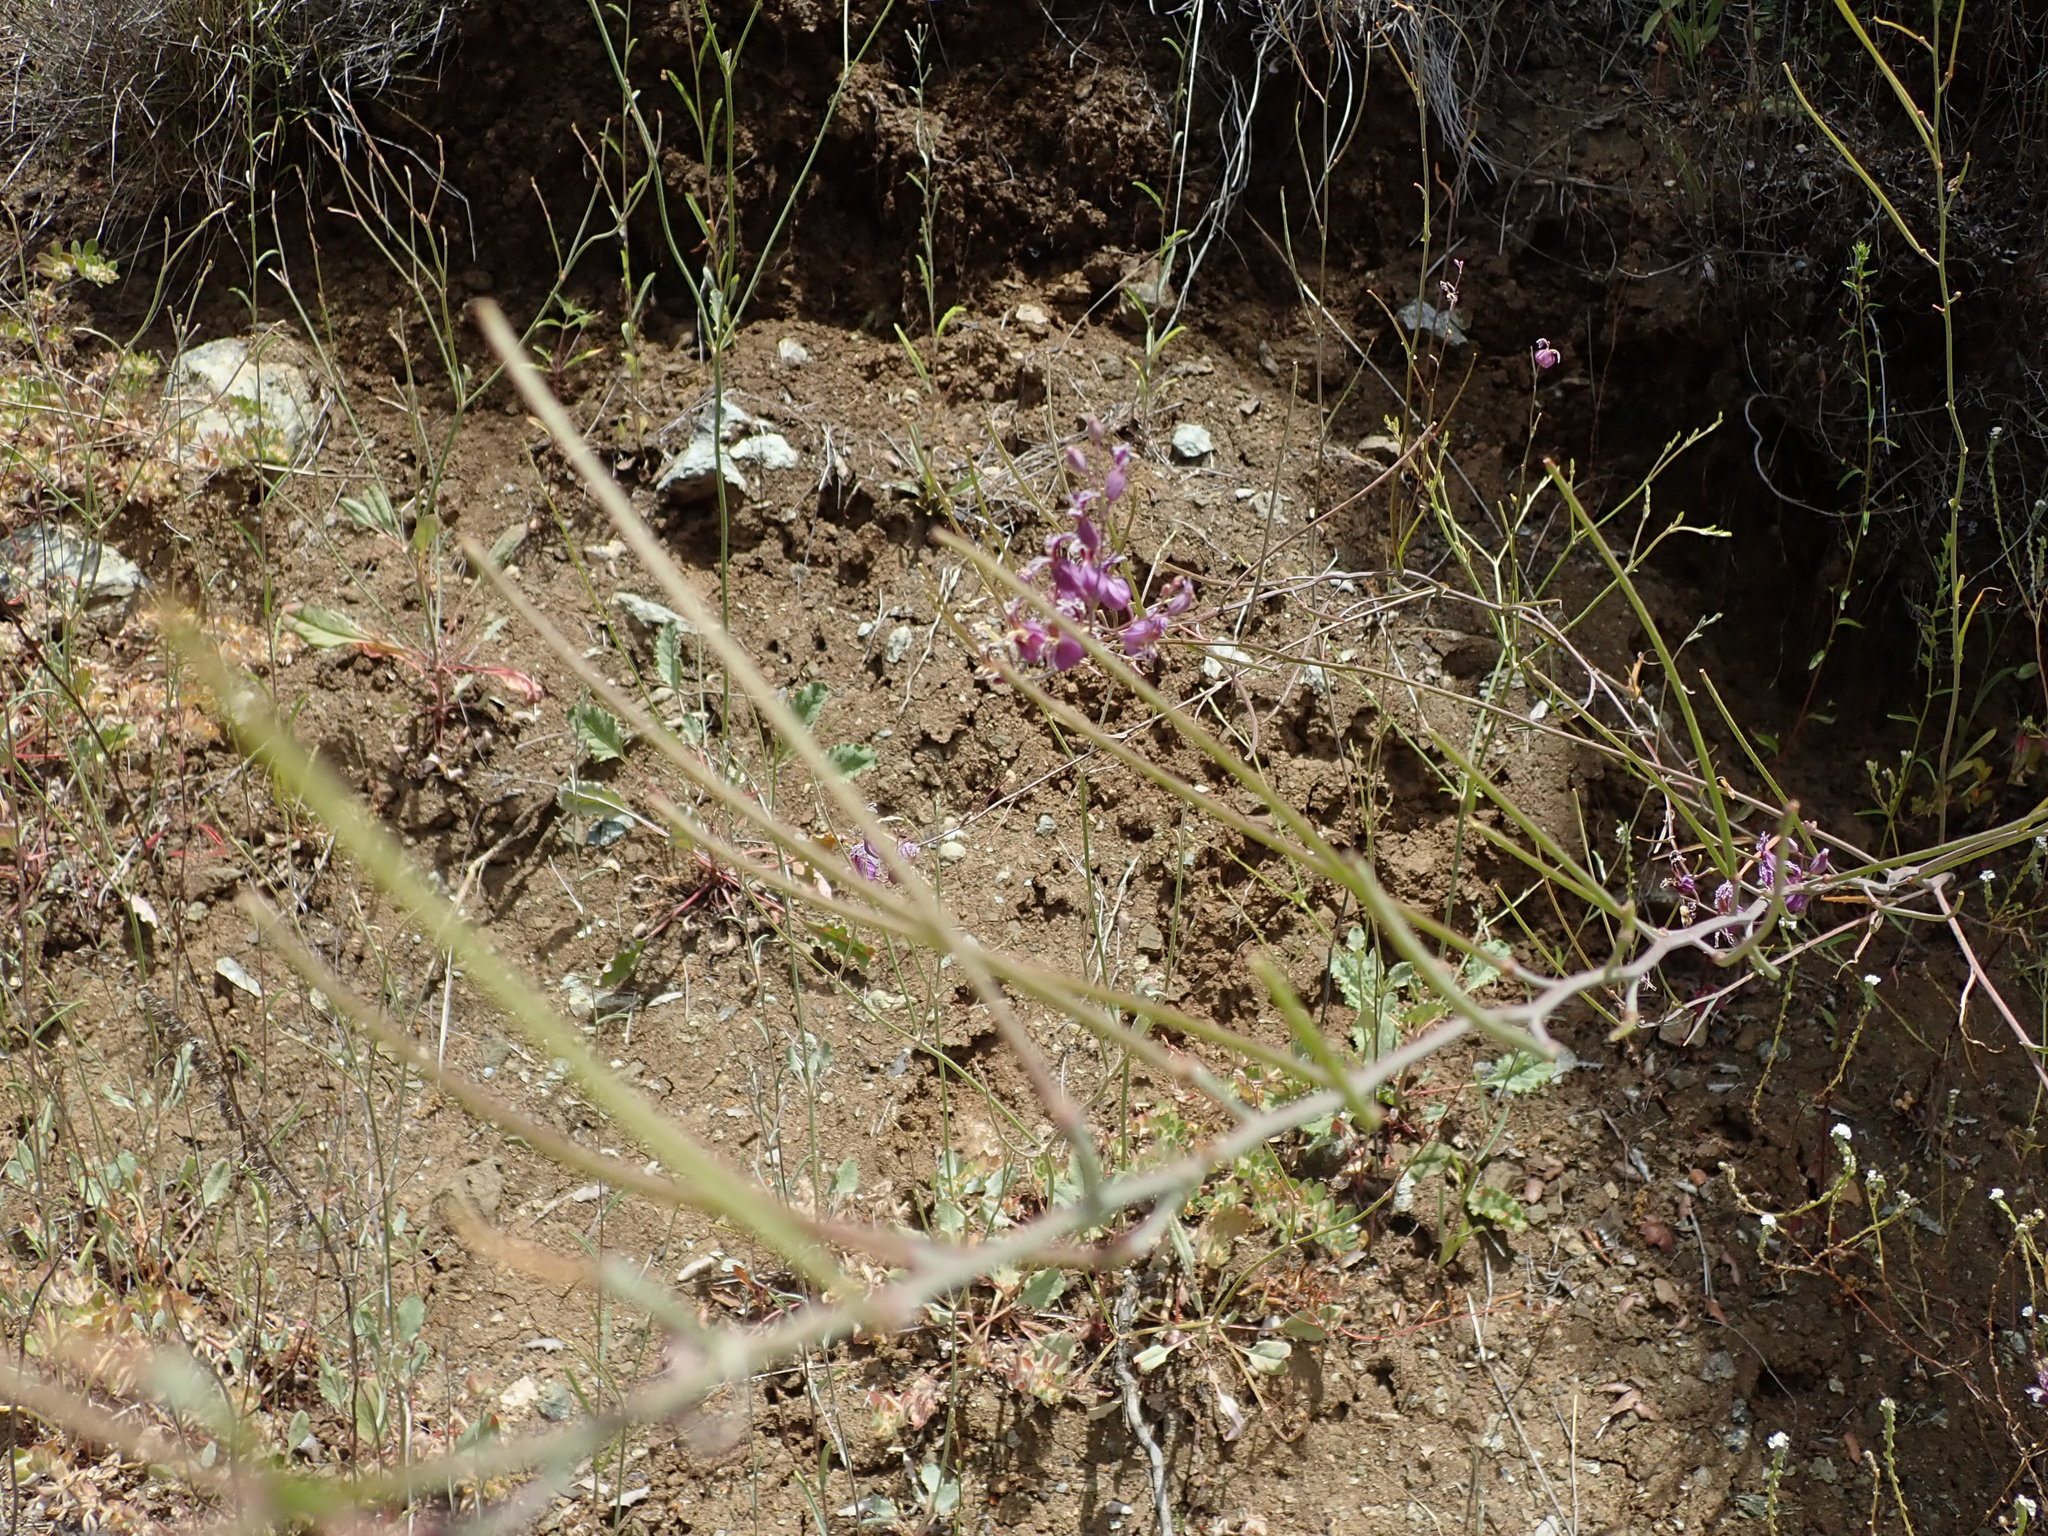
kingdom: Plantae
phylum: Tracheophyta
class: Magnoliopsida
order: Brassicales
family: Brassicaceae
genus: Streptanthus
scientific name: Streptanthus glandulosus
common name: Jewel-flower
